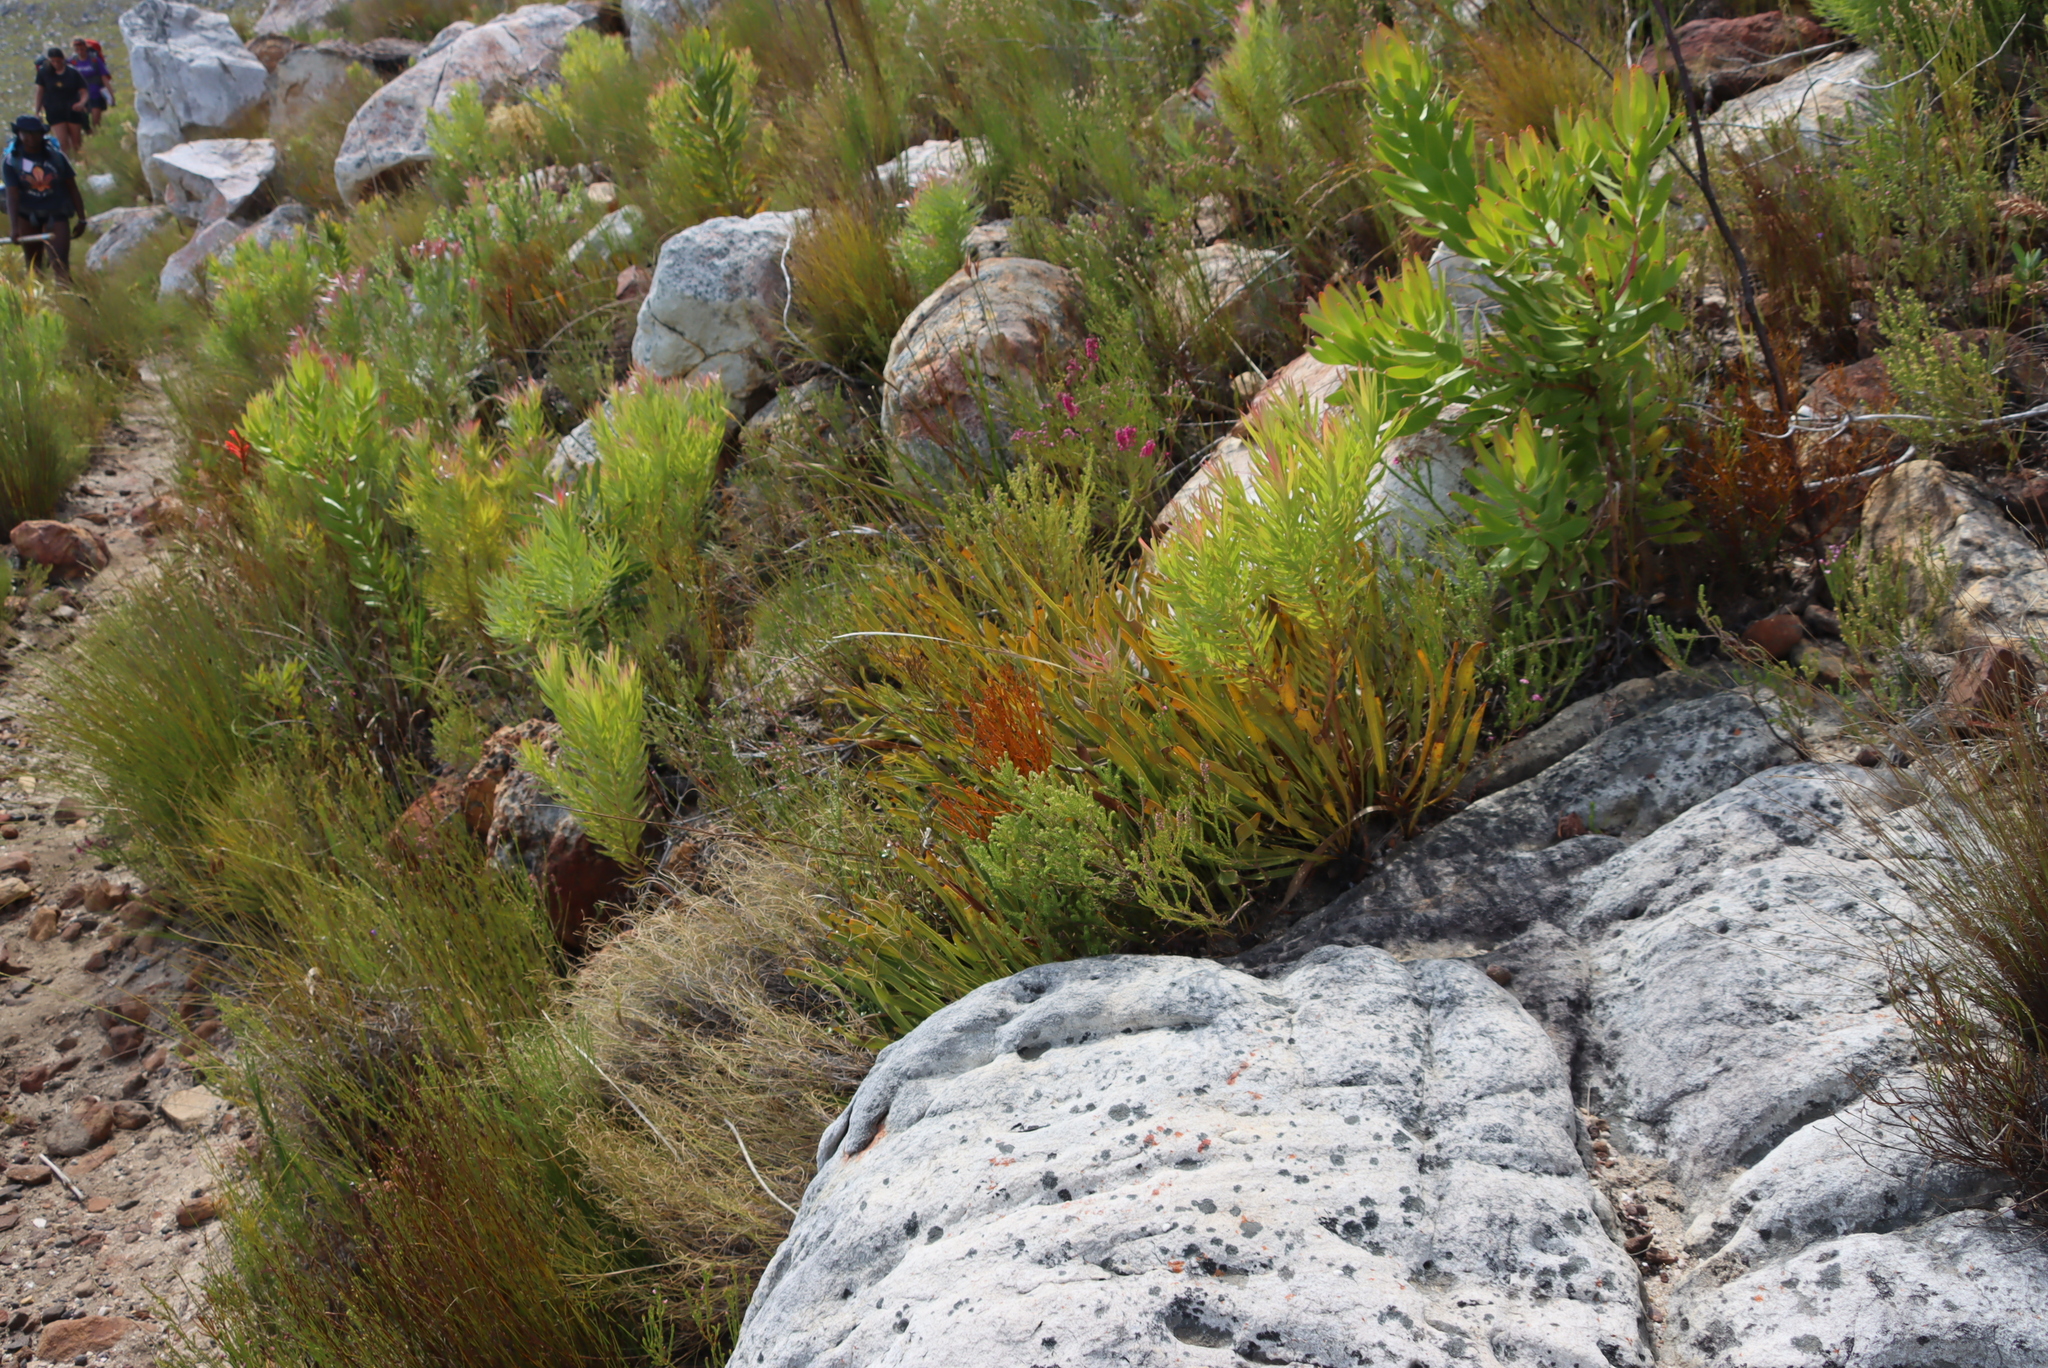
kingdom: Plantae
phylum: Tracheophyta
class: Magnoliopsida
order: Proteales
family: Proteaceae
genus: Protea
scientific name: Protea scabra
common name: Sandpaper-leaf sugarbush
